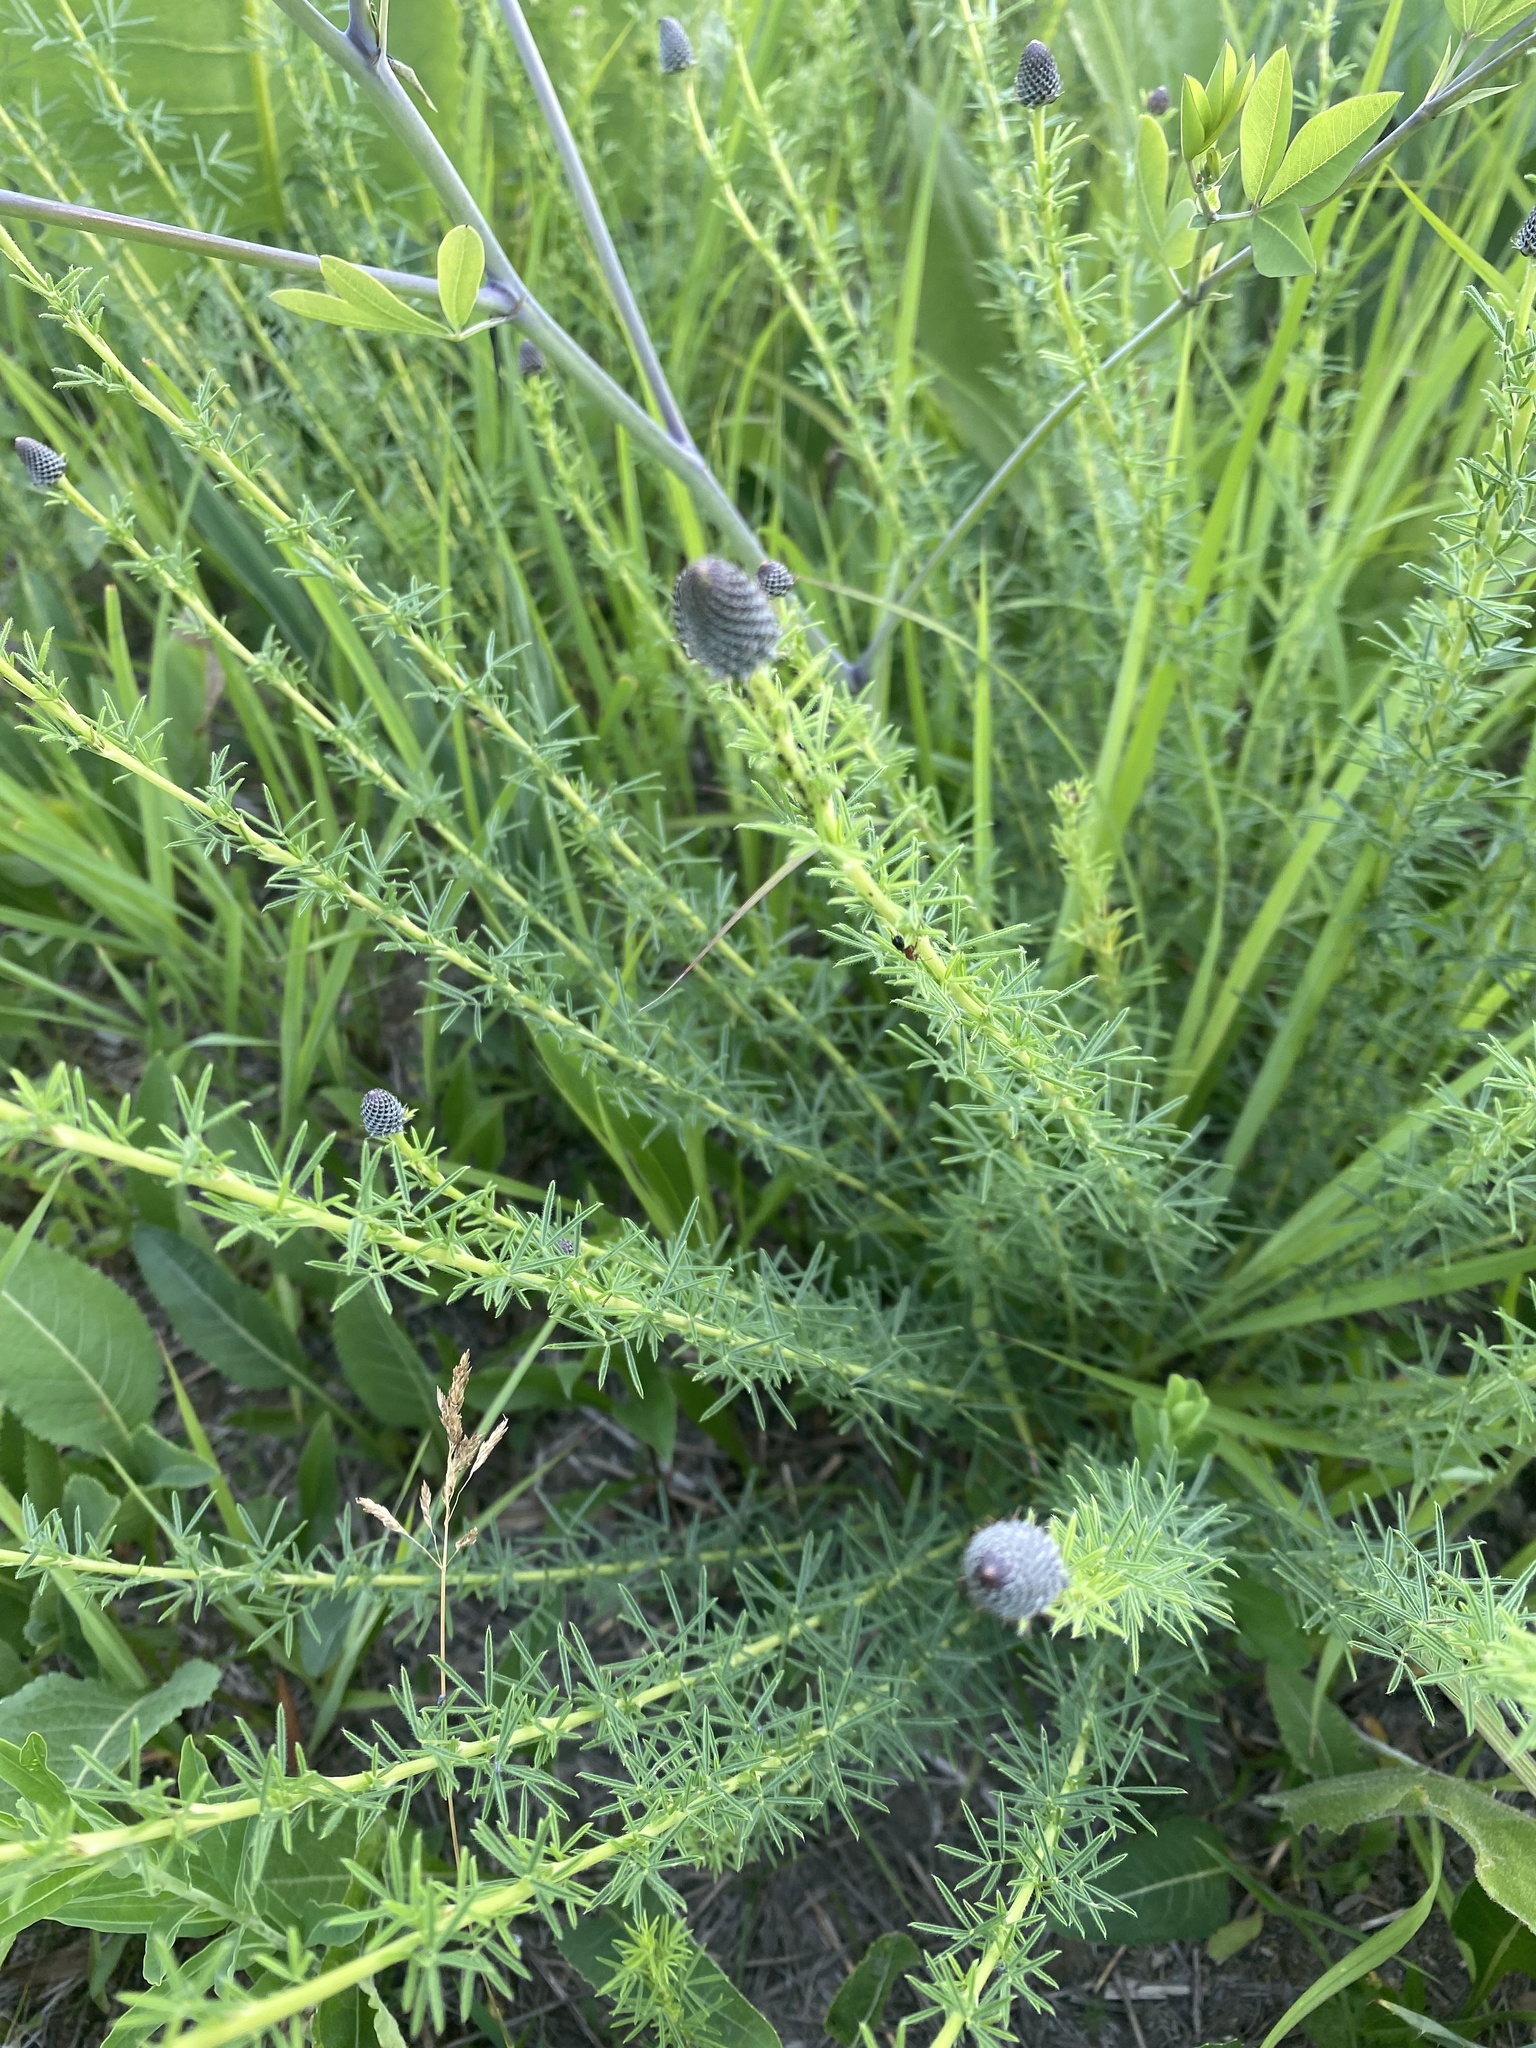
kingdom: Plantae
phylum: Tracheophyta
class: Magnoliopsida
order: Fabales
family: Fabaceae
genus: Dalea
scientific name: Dalea purpurea
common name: Purple prairie-clover
